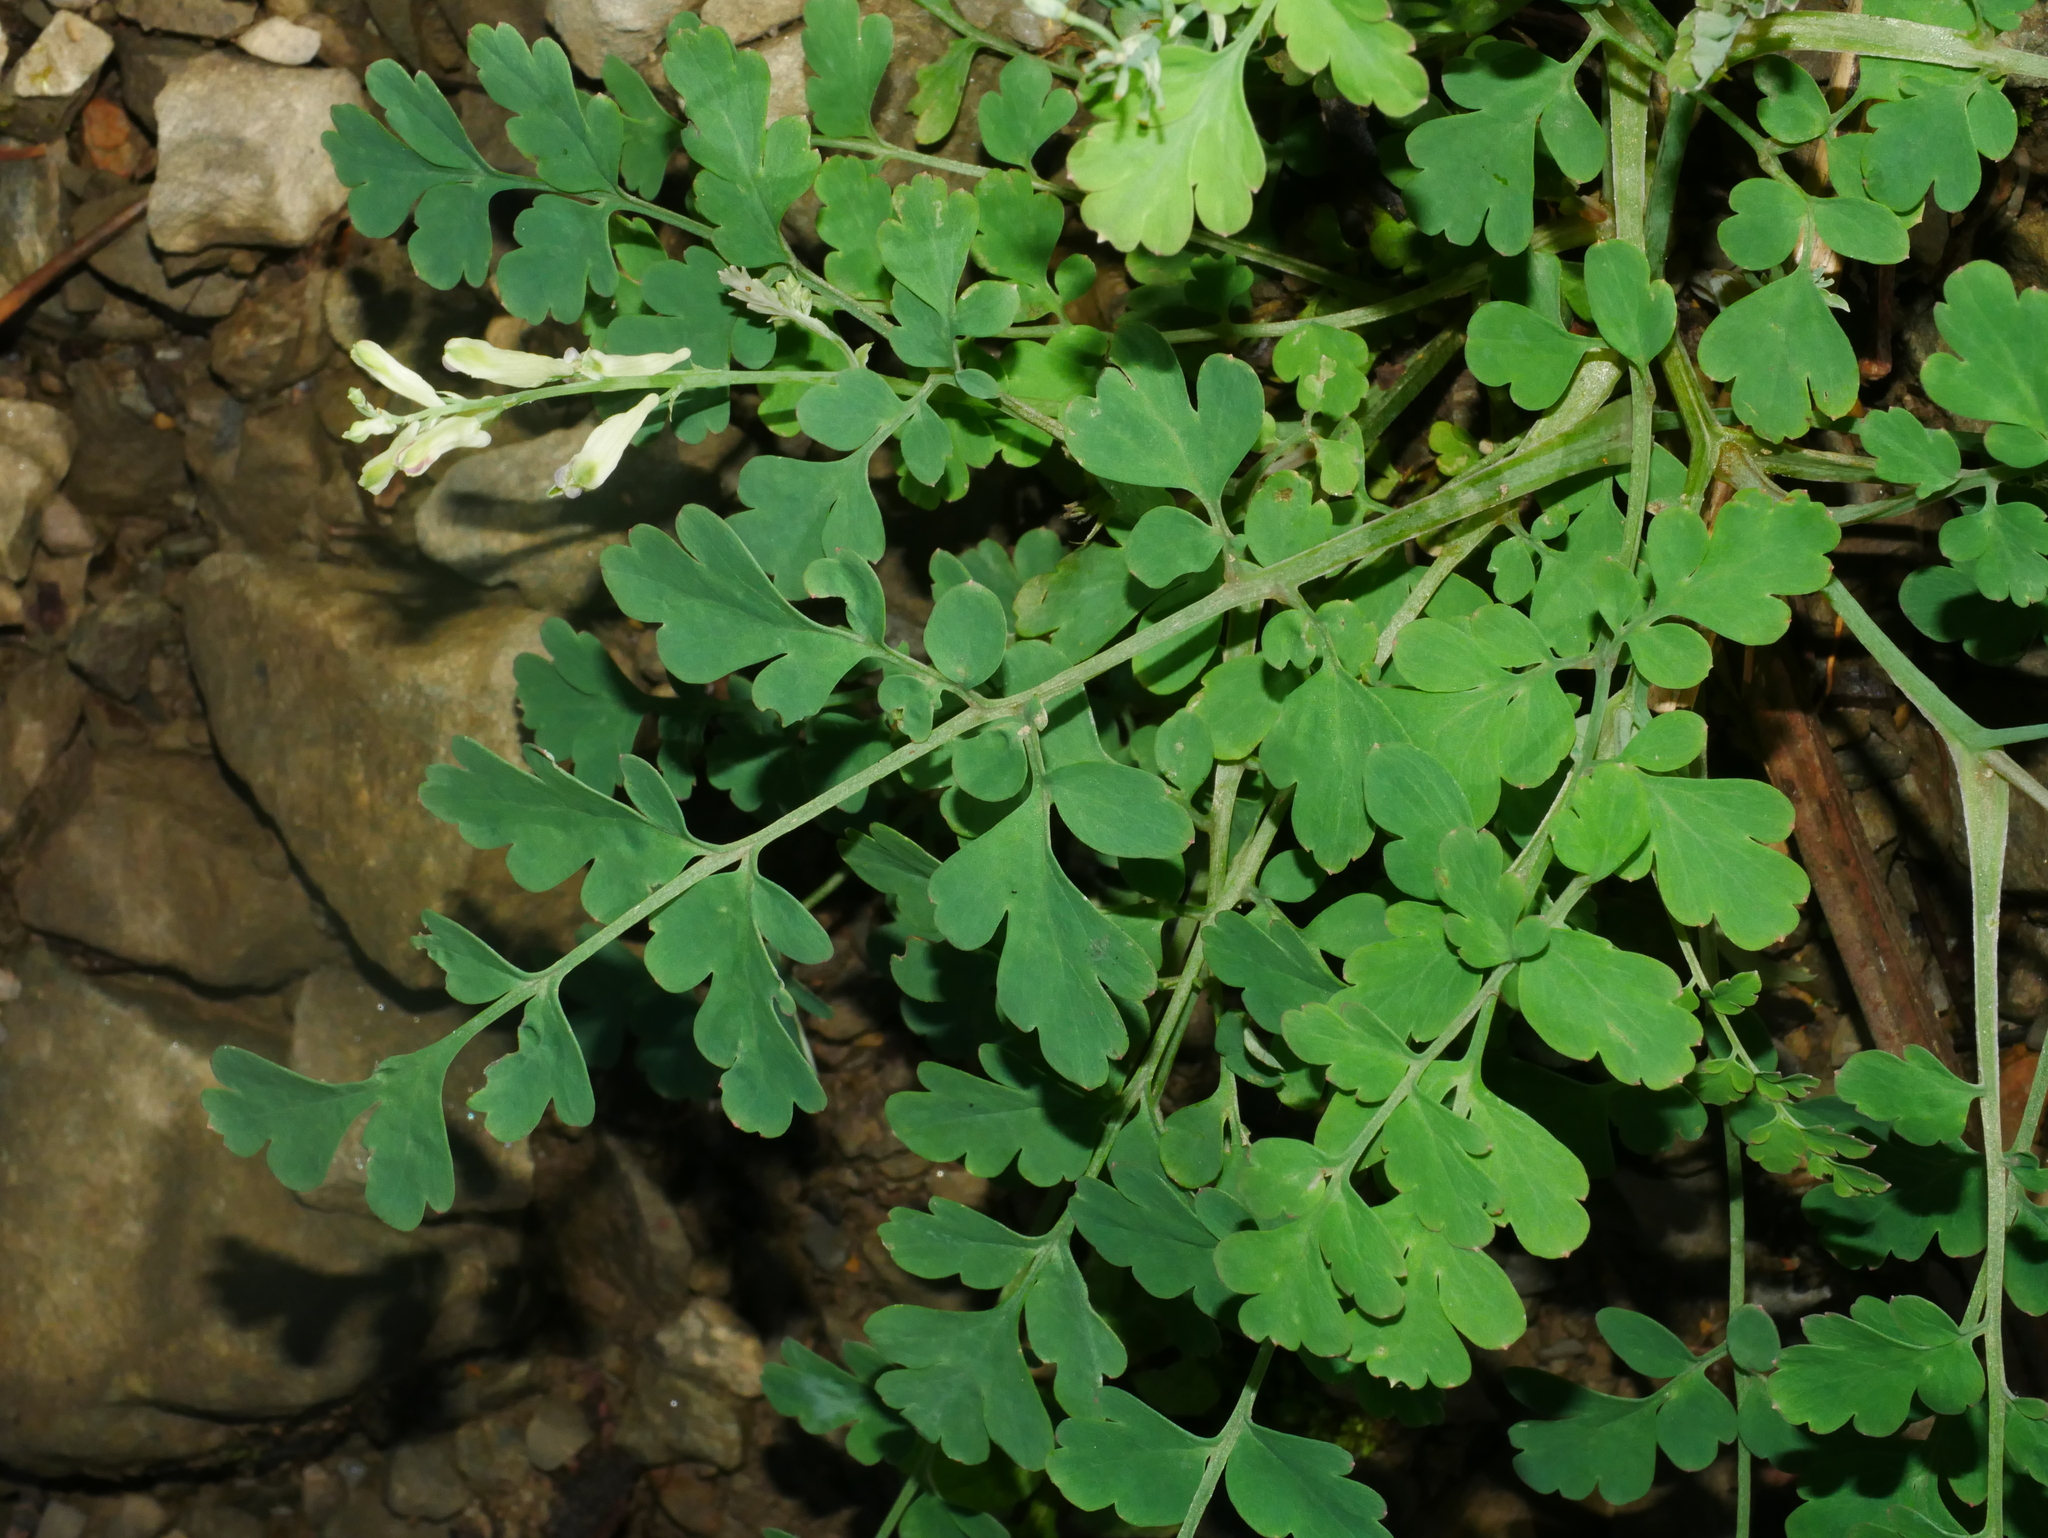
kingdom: Plantae
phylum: Tracheophyta
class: Magnoliopsida
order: Ranunculales
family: Papaveraceae
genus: Corydalis
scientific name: Corydalis ophiocarpa
